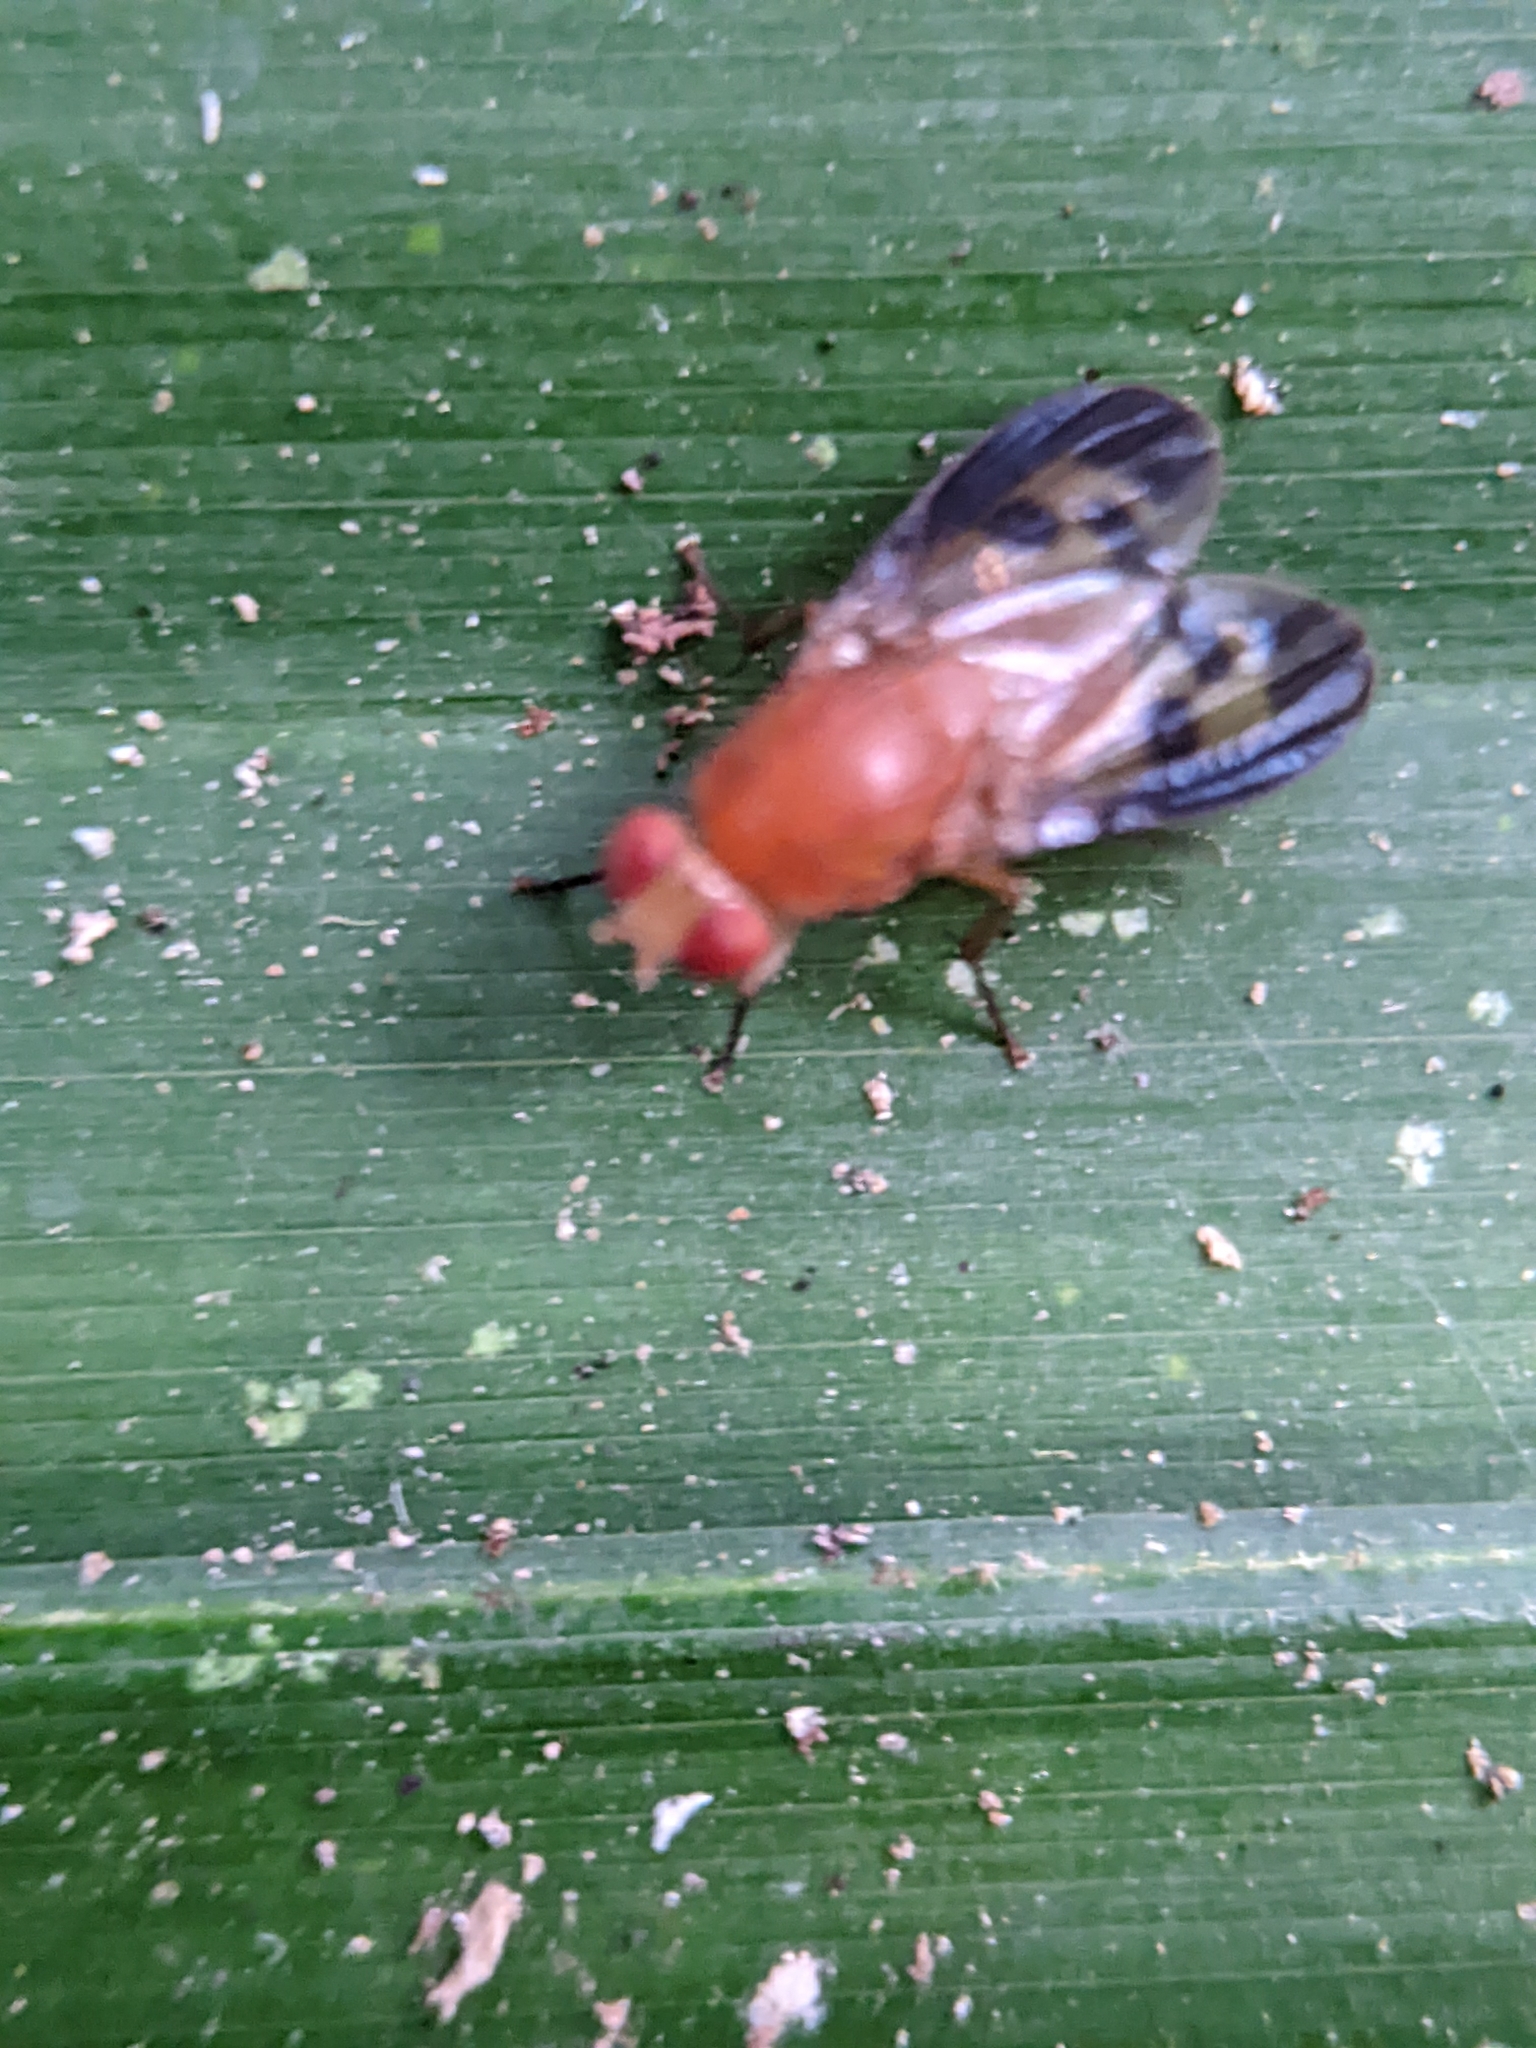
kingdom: Animalia
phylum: Arthropoda
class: Insecta
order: Diptera
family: Lauxaniidae
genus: Setulina
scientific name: Setulina prima
